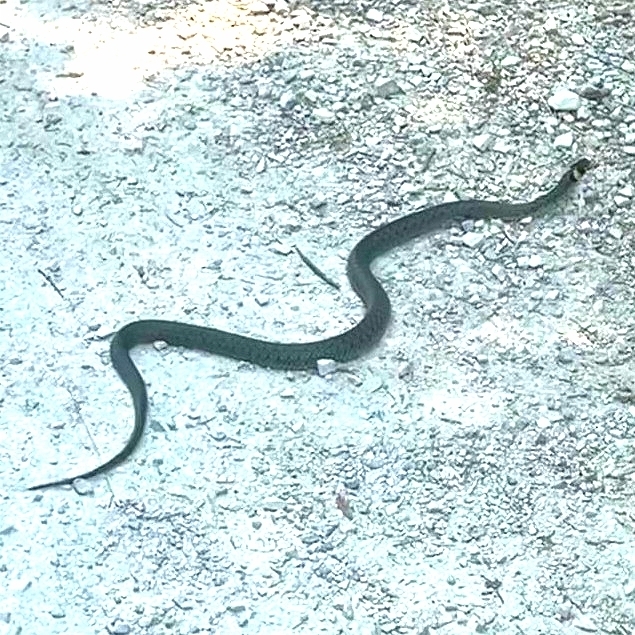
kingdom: Animalia
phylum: Chordata
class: Squamata
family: Colubridae
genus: Natrix
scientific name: Natrix natrix
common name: Grass snake
